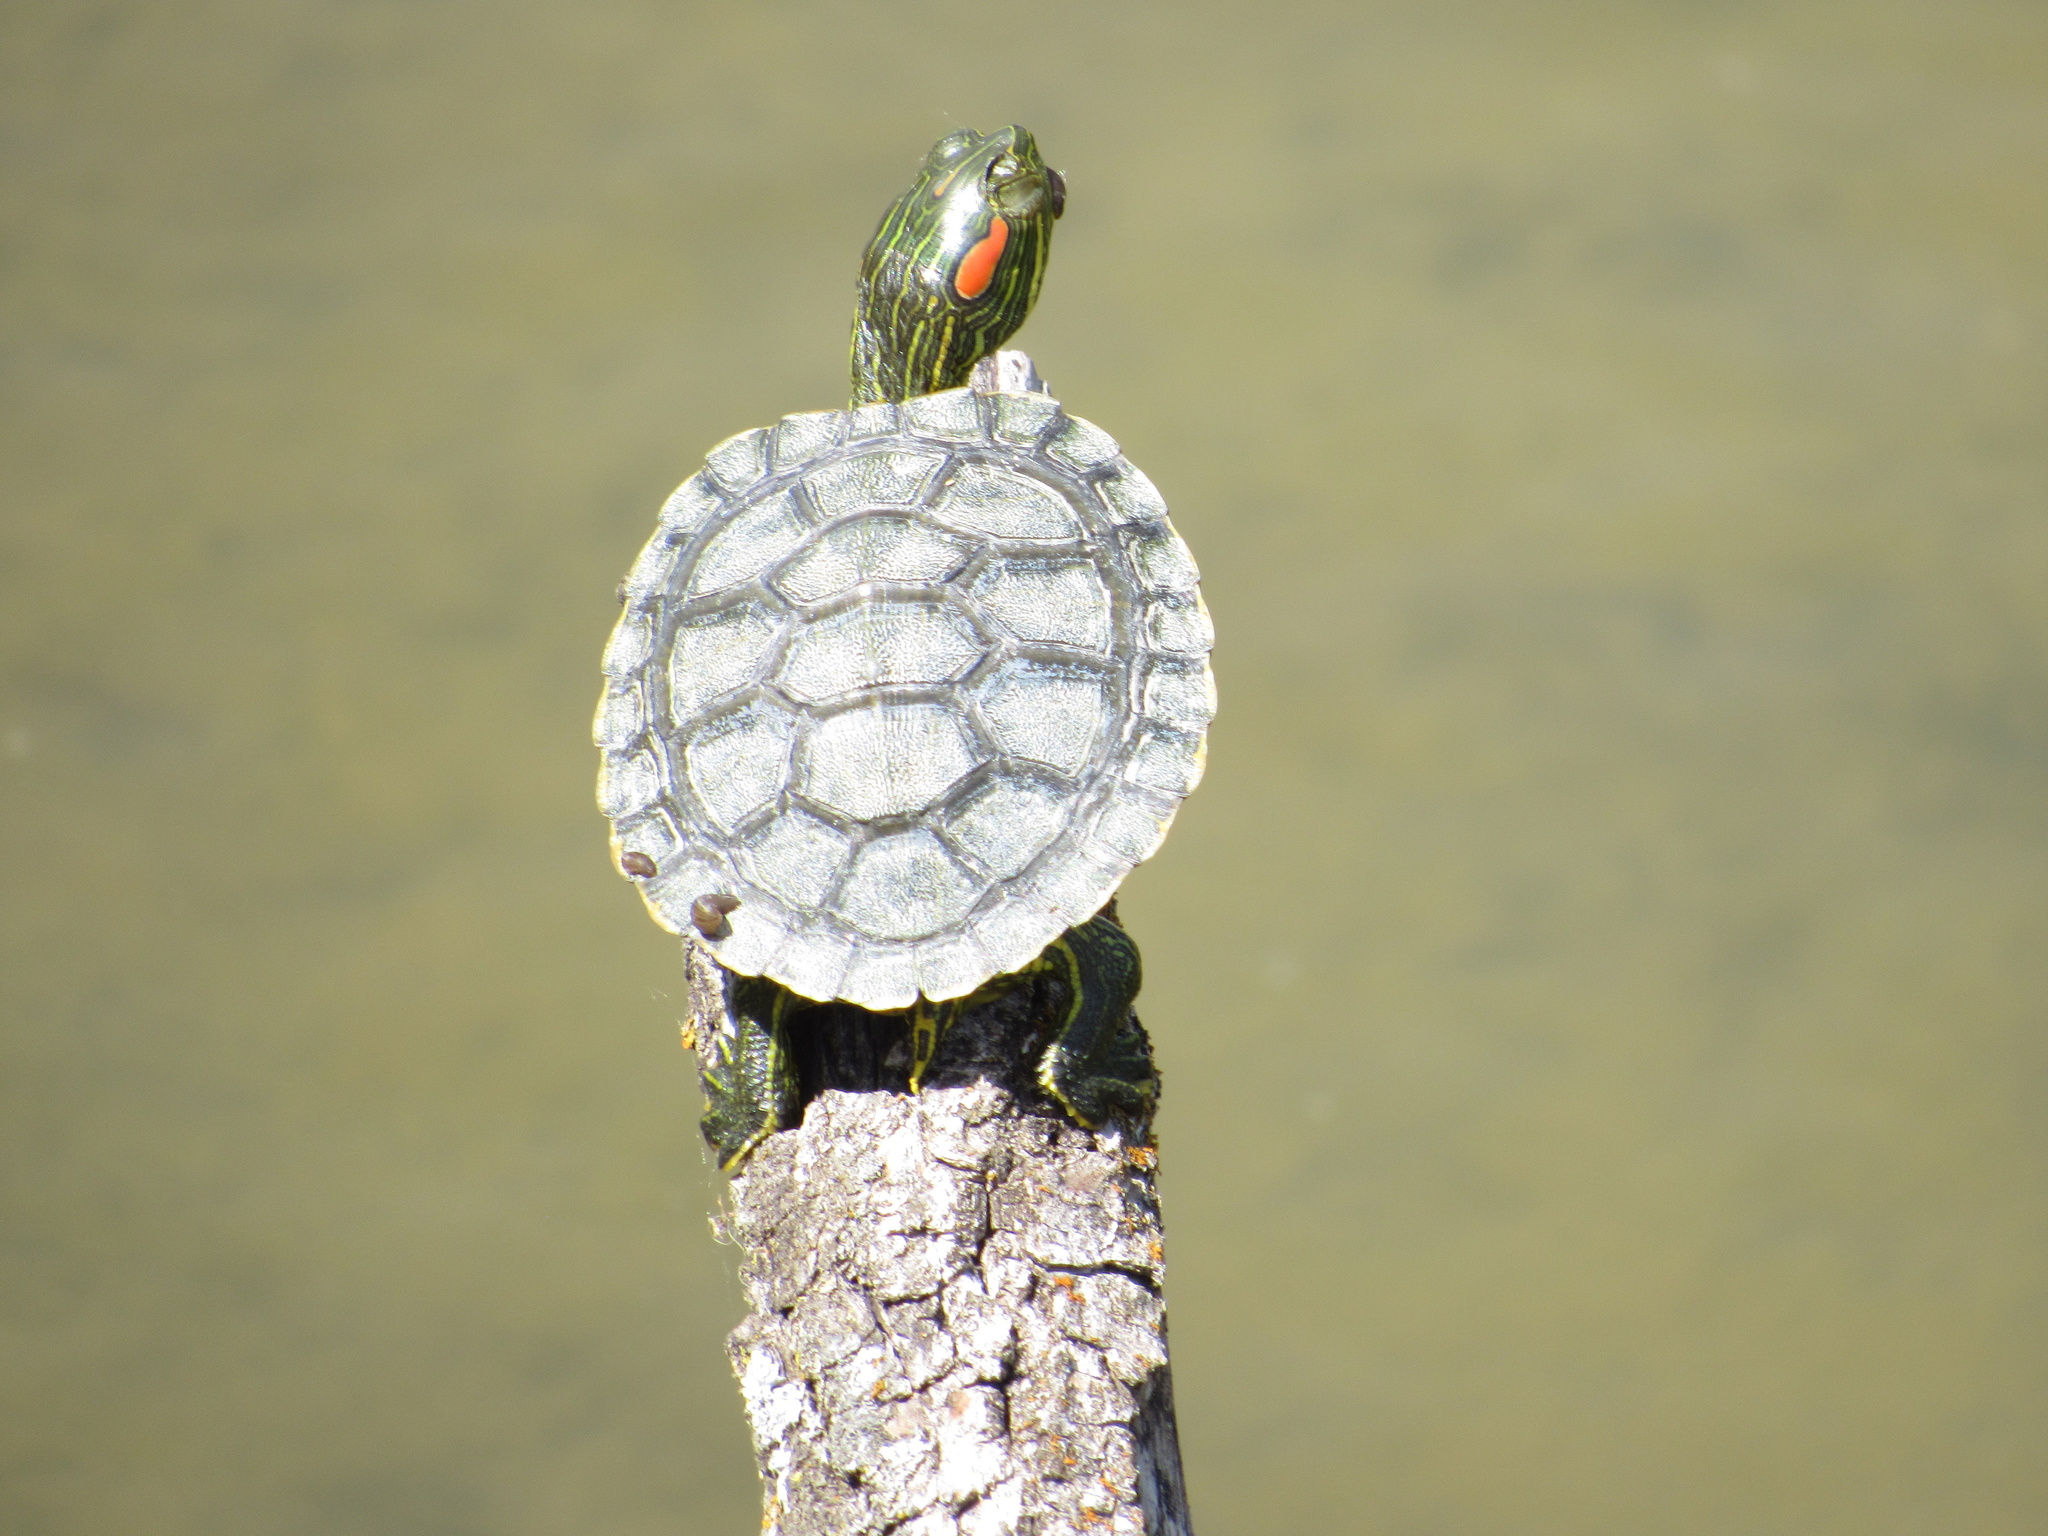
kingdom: Animalia
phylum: Chordata
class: Testudines
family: Emydidae
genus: Trachemys
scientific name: Trachemys scripta
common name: Slider
